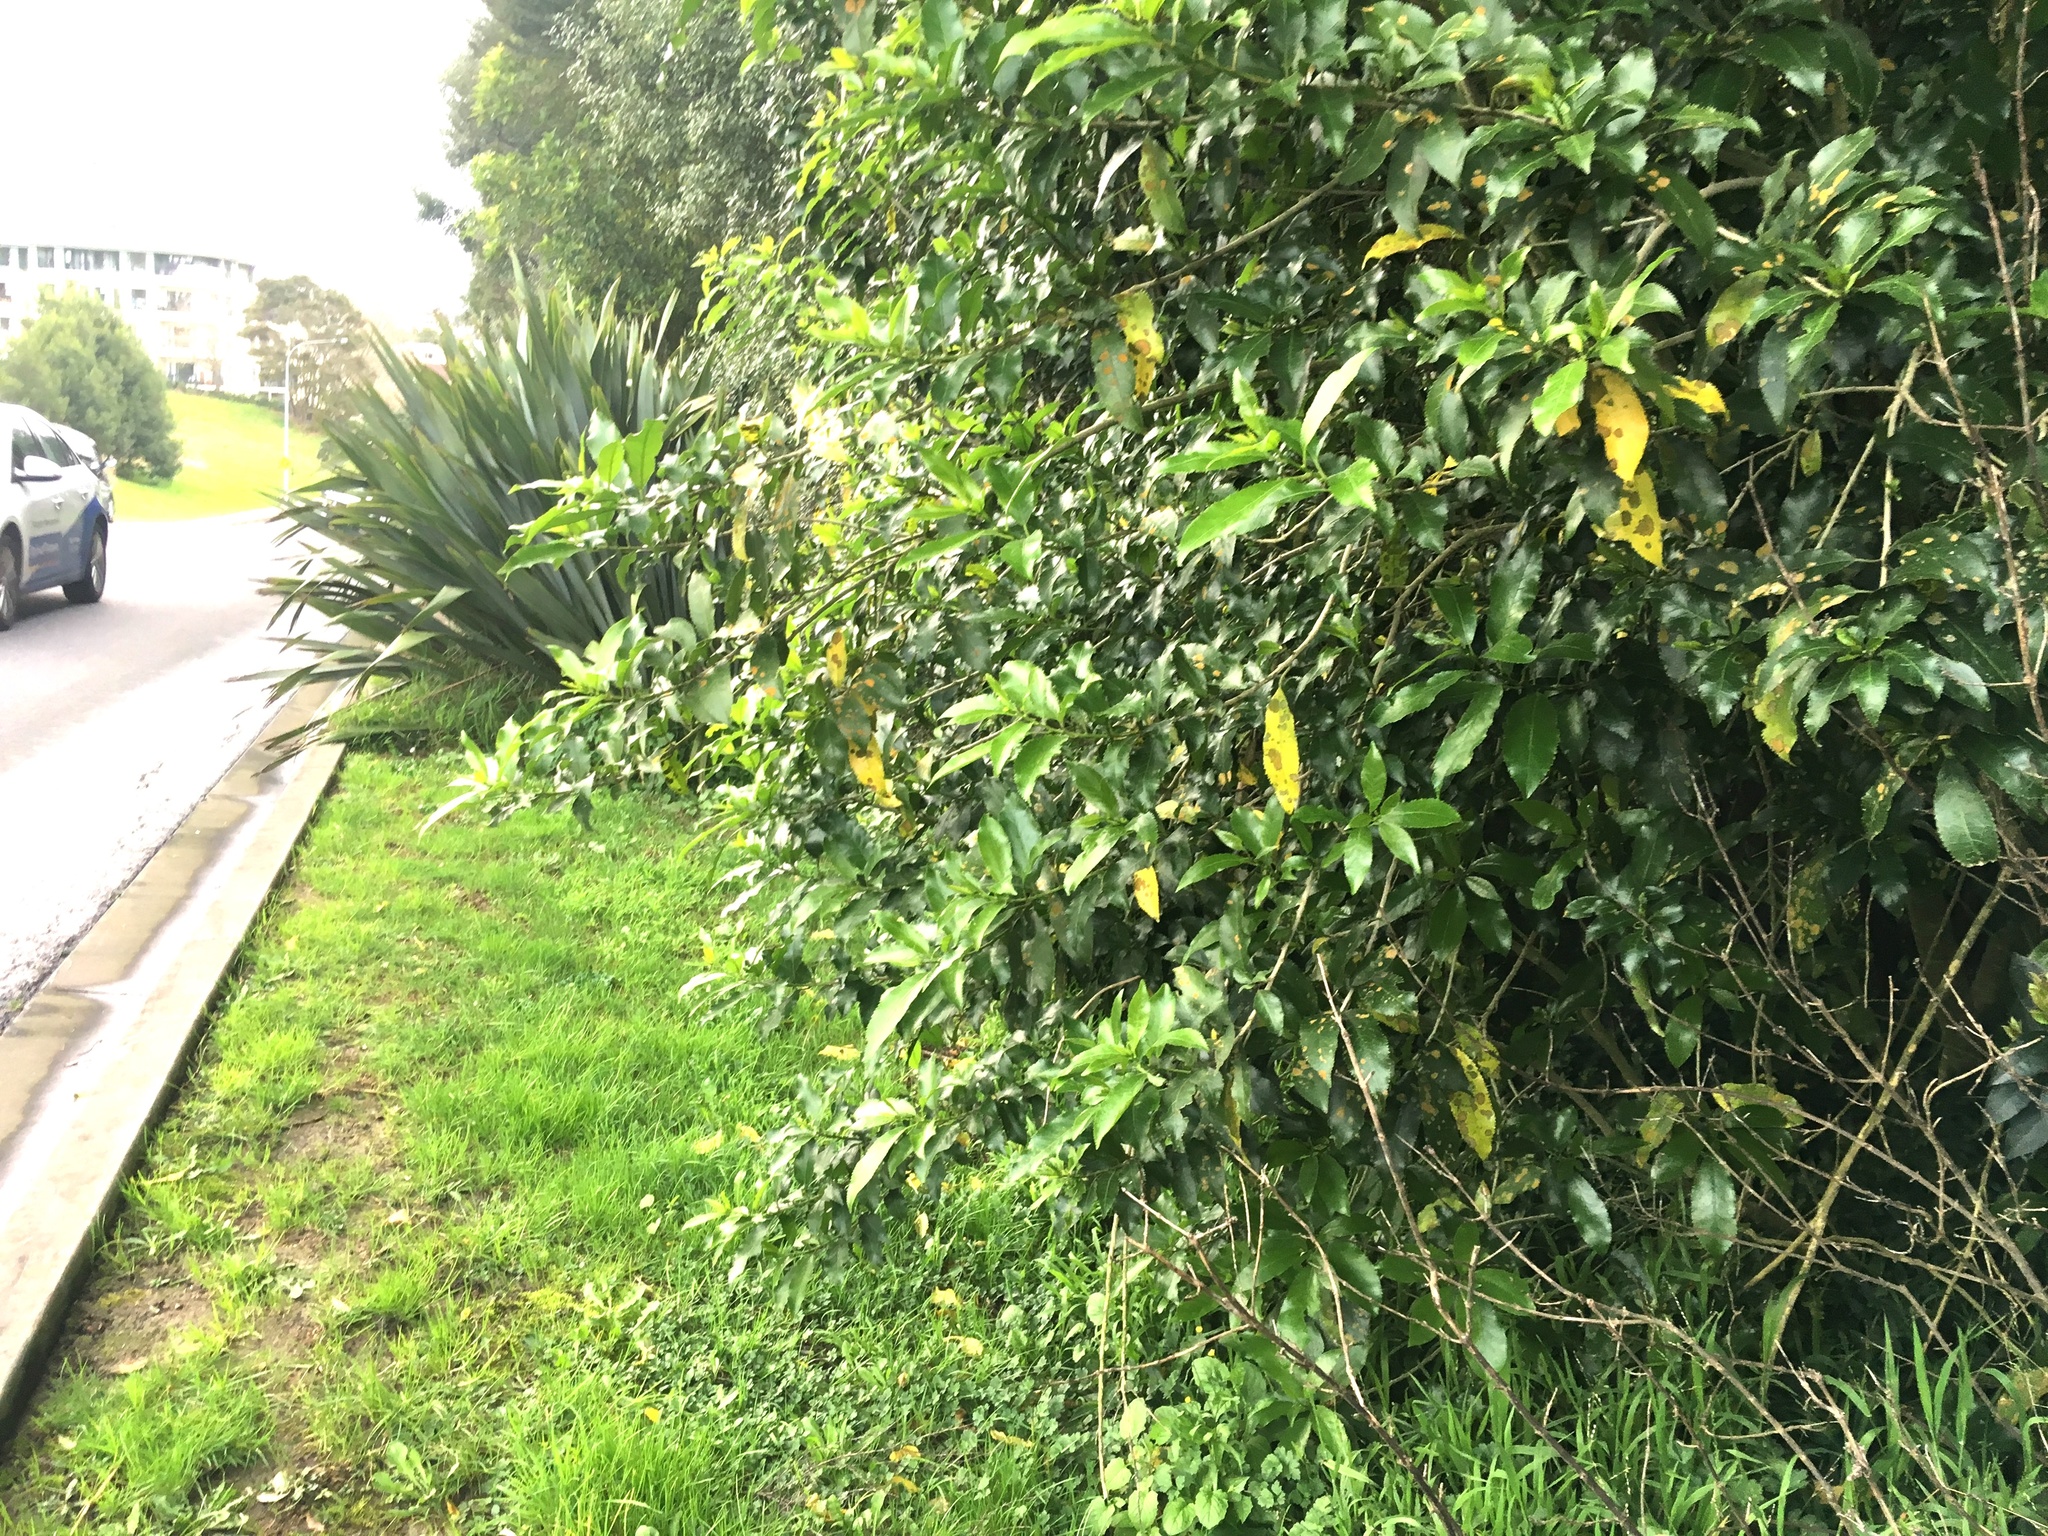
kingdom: Plantae
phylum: Tracheophyta
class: Magnoliopsida
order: Malpighiales
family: Violaceae
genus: Melicytus
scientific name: Melicytus ramiflorus
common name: Mahoe
